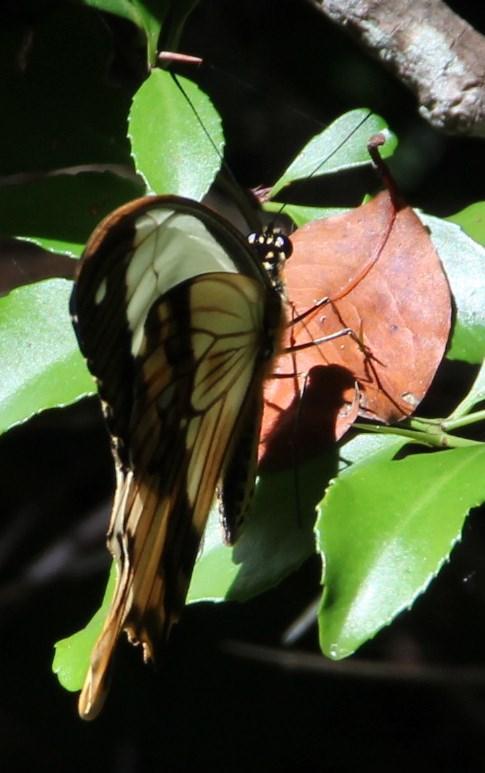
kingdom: Animalia
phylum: Arthropoda
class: Insecta
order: Lepidoptera
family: Papilionidae
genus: Papilio
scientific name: Papilio dardanus
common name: Flying handkerchief
